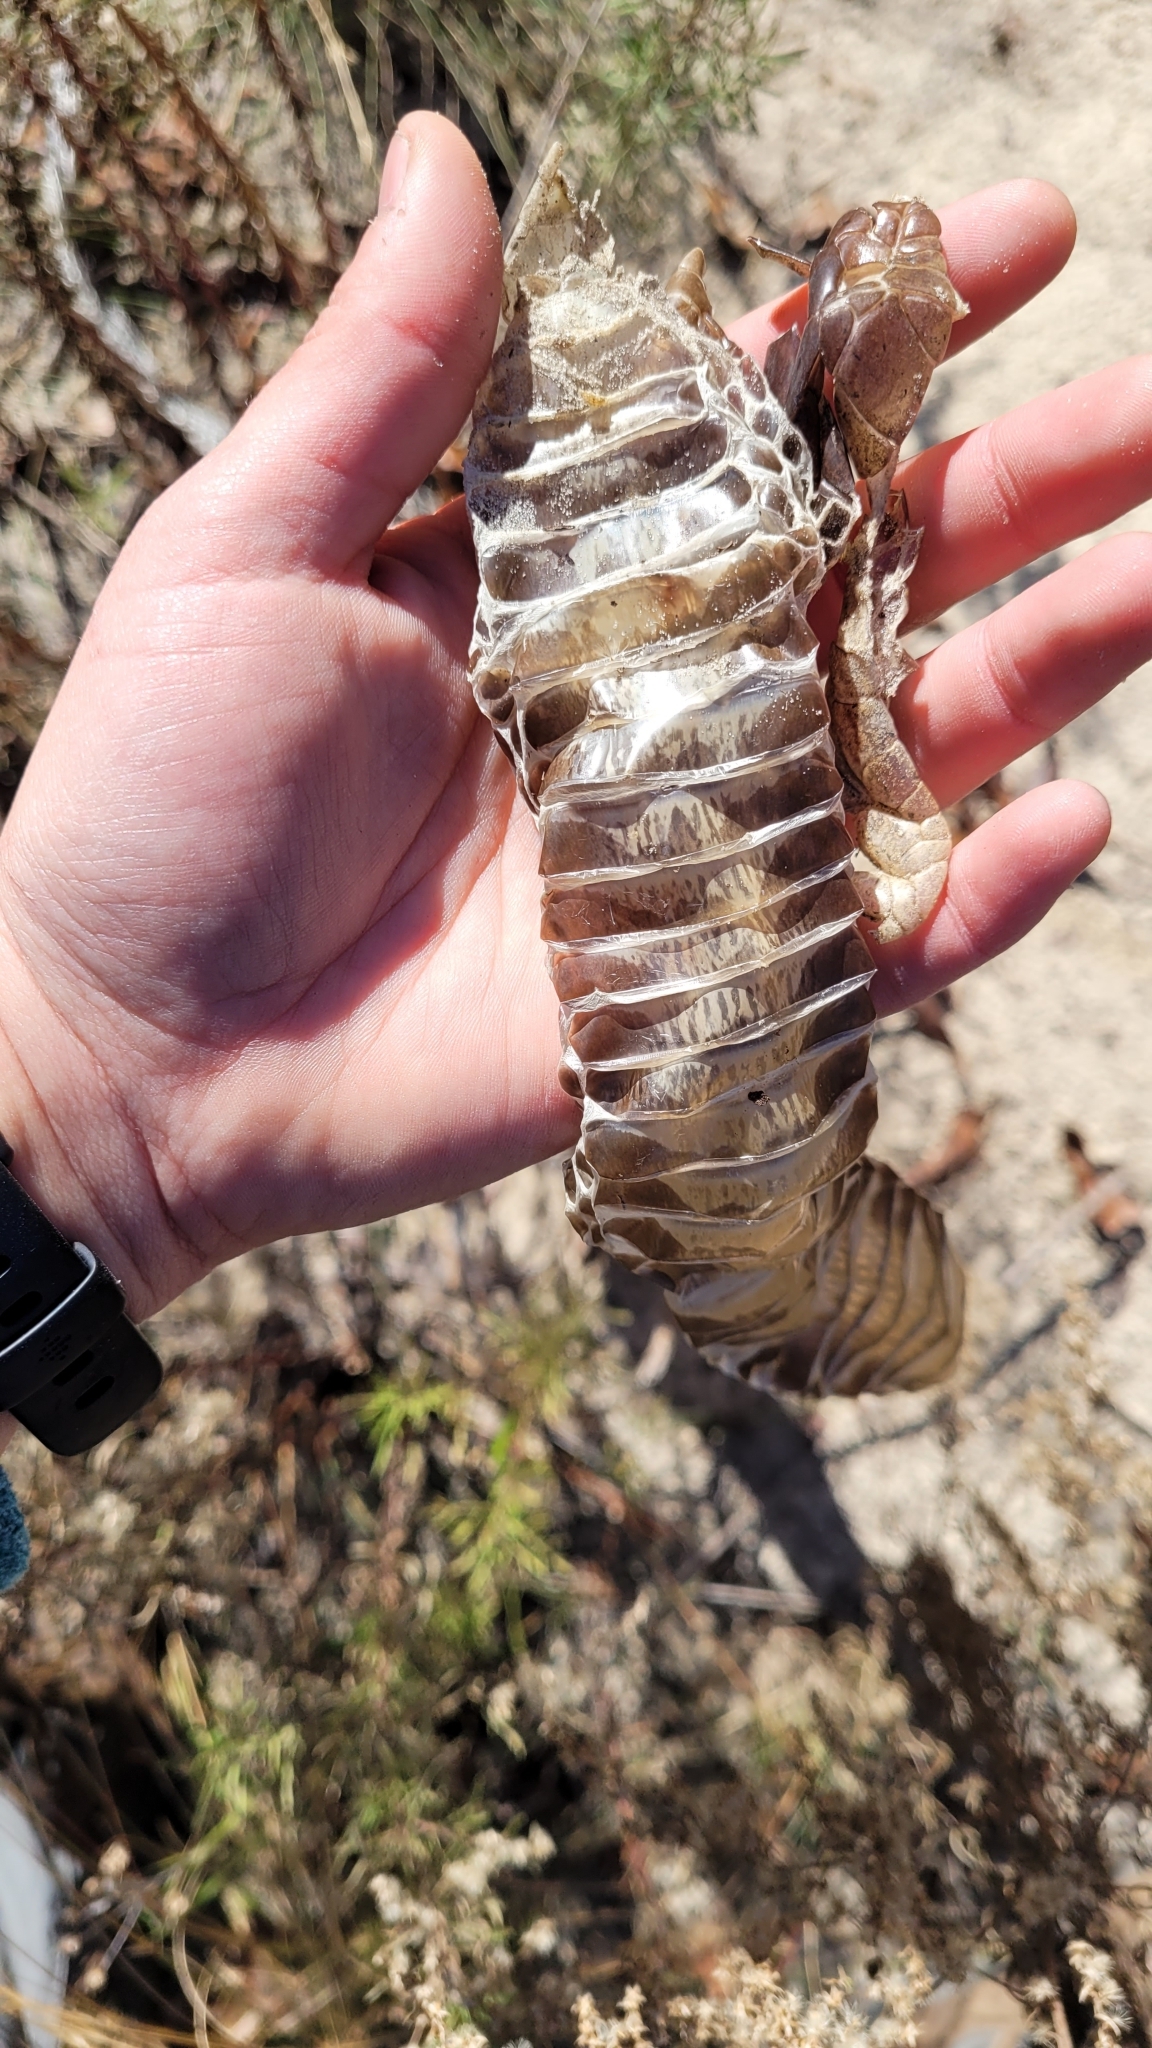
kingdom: Animalia
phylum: Chordata
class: Squamata
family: Colubridae
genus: Drymarchon
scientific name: Drymarchon couperi
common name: Eastern indigo snake
